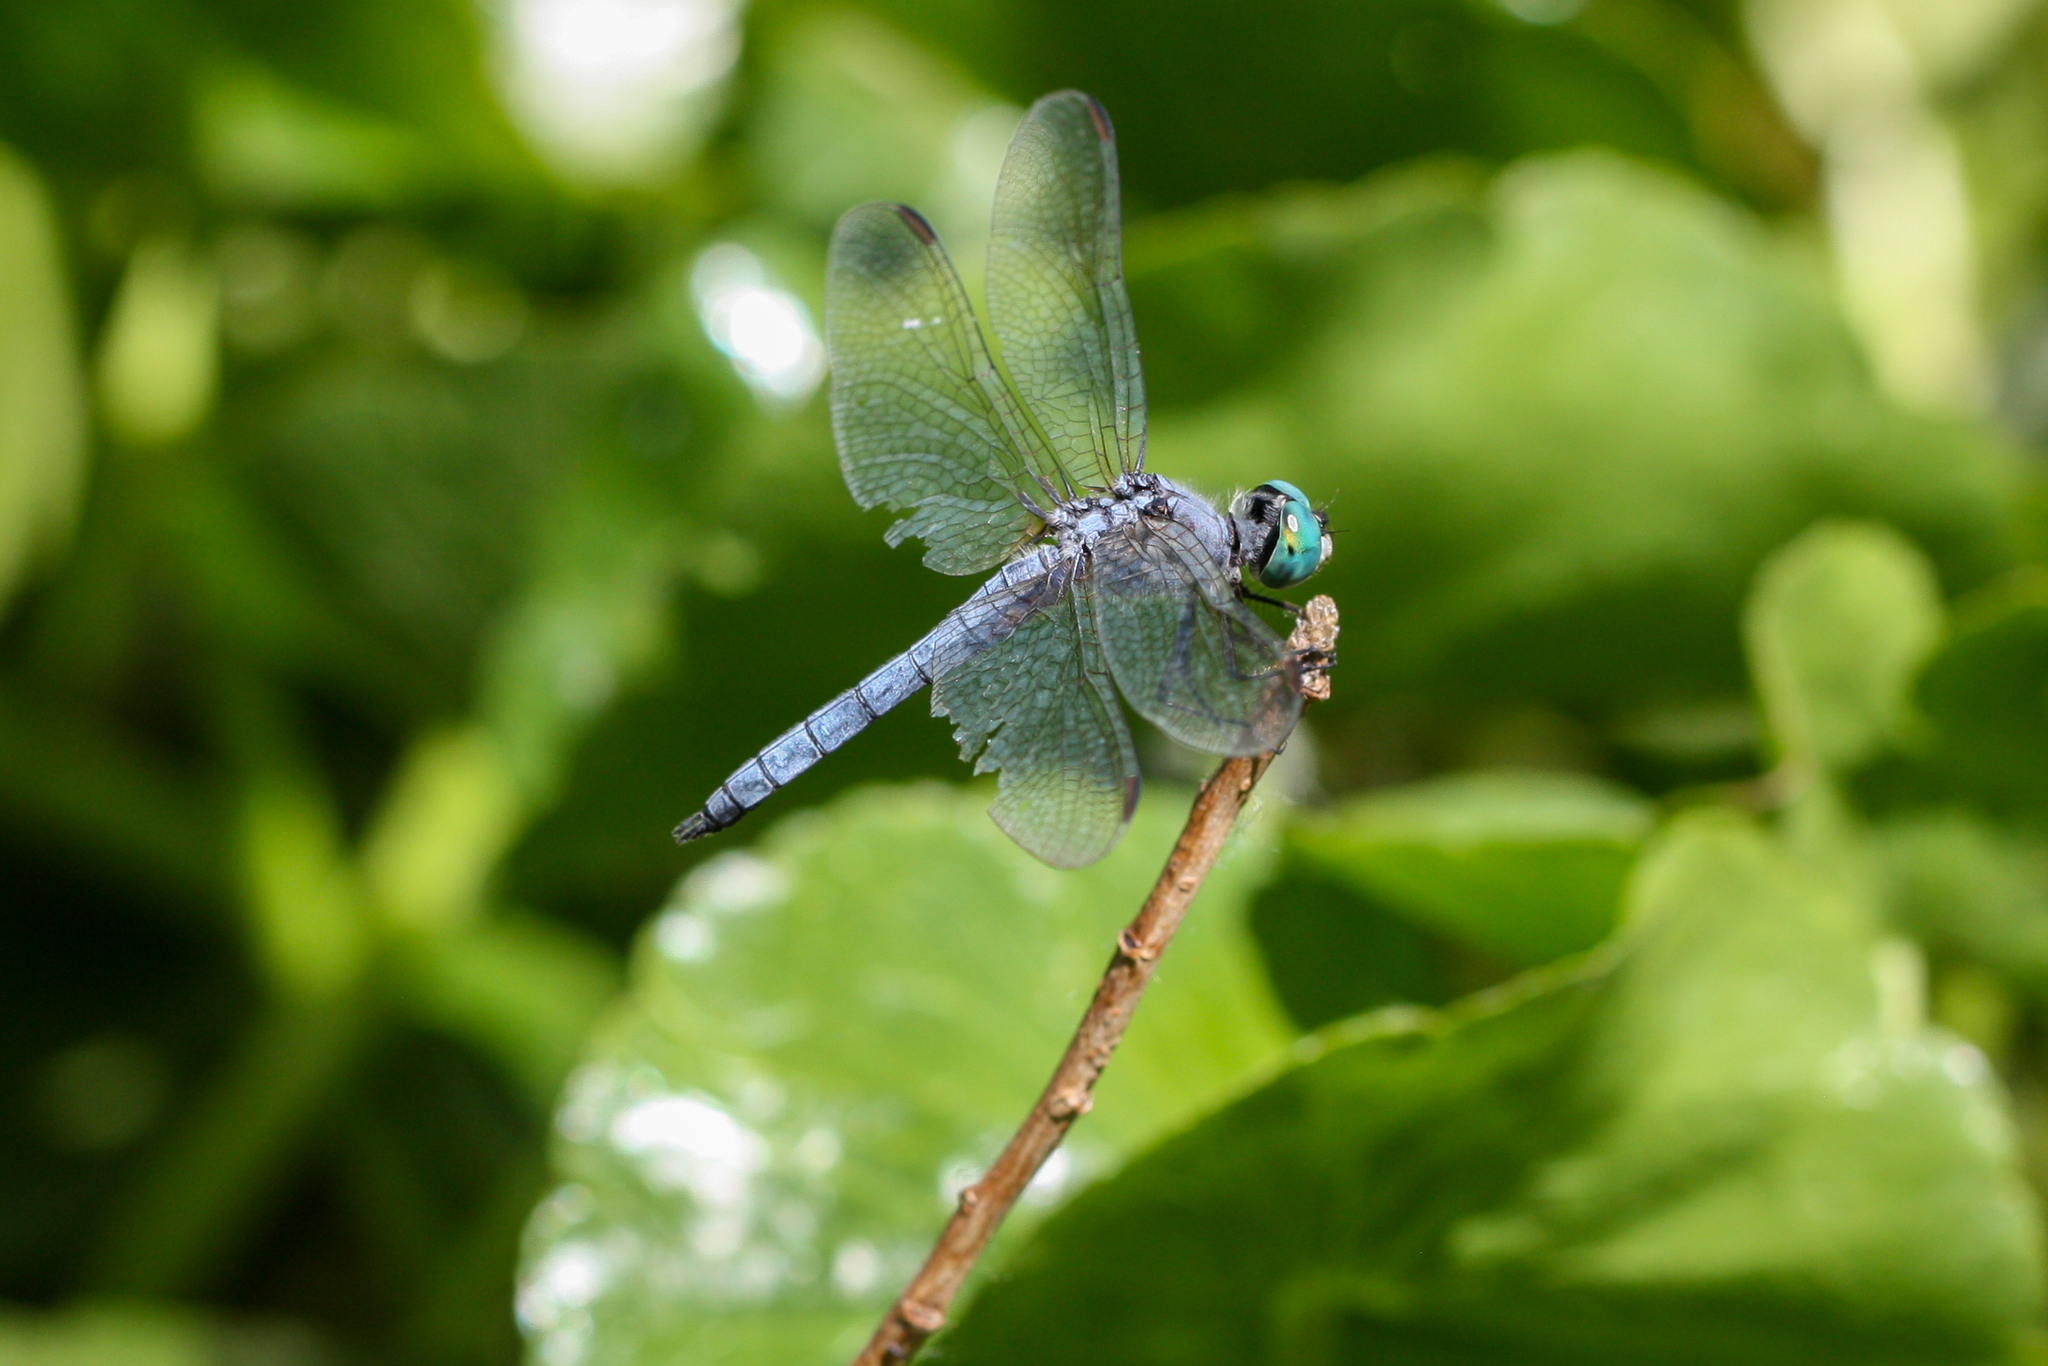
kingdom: Animalia
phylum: Arthropoda
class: Insecta
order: Odonata
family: Libellulidae
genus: Pachydiplax
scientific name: Pachydiplax longipennis
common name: Blue dasher
